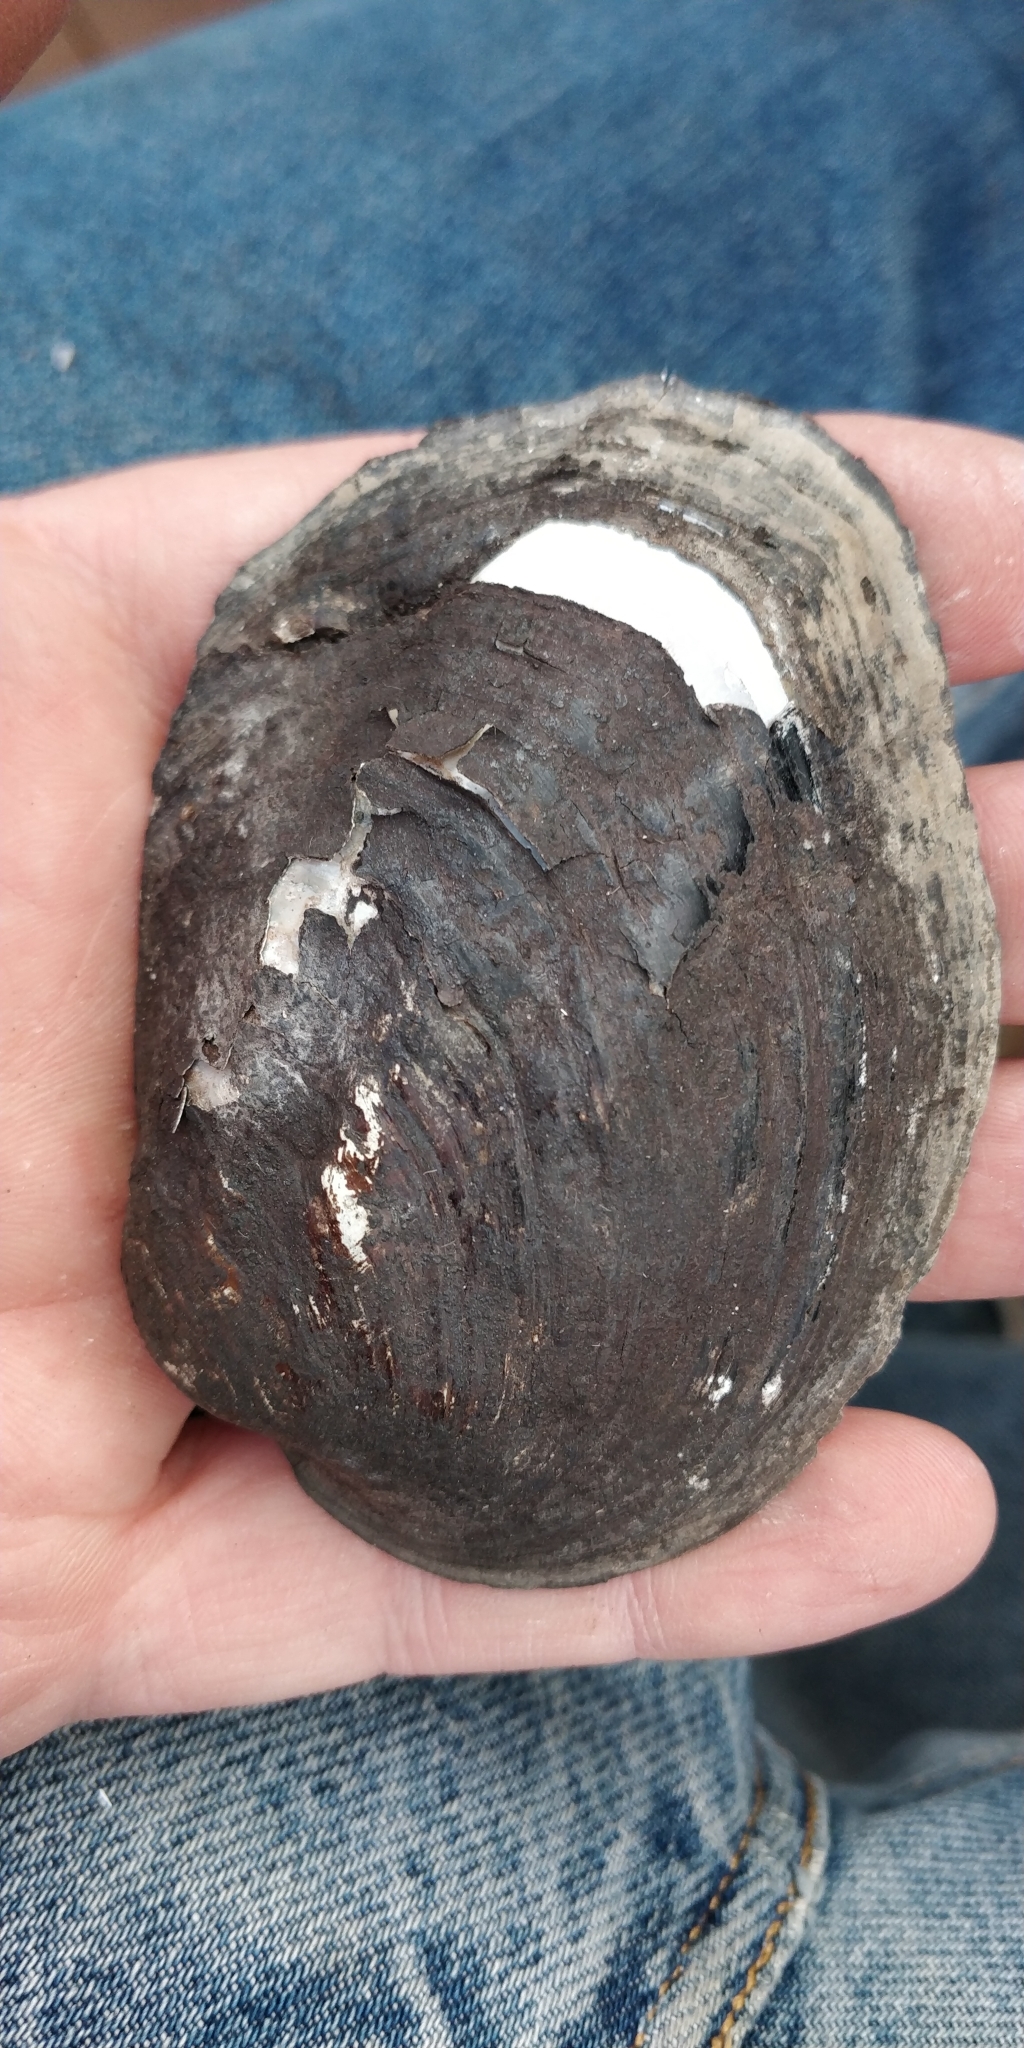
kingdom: Animalia
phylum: Mollusca
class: Bivalvia
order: Unionida
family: Unionidae
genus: Amblema
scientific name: Amblema plicata
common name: Threeridge
